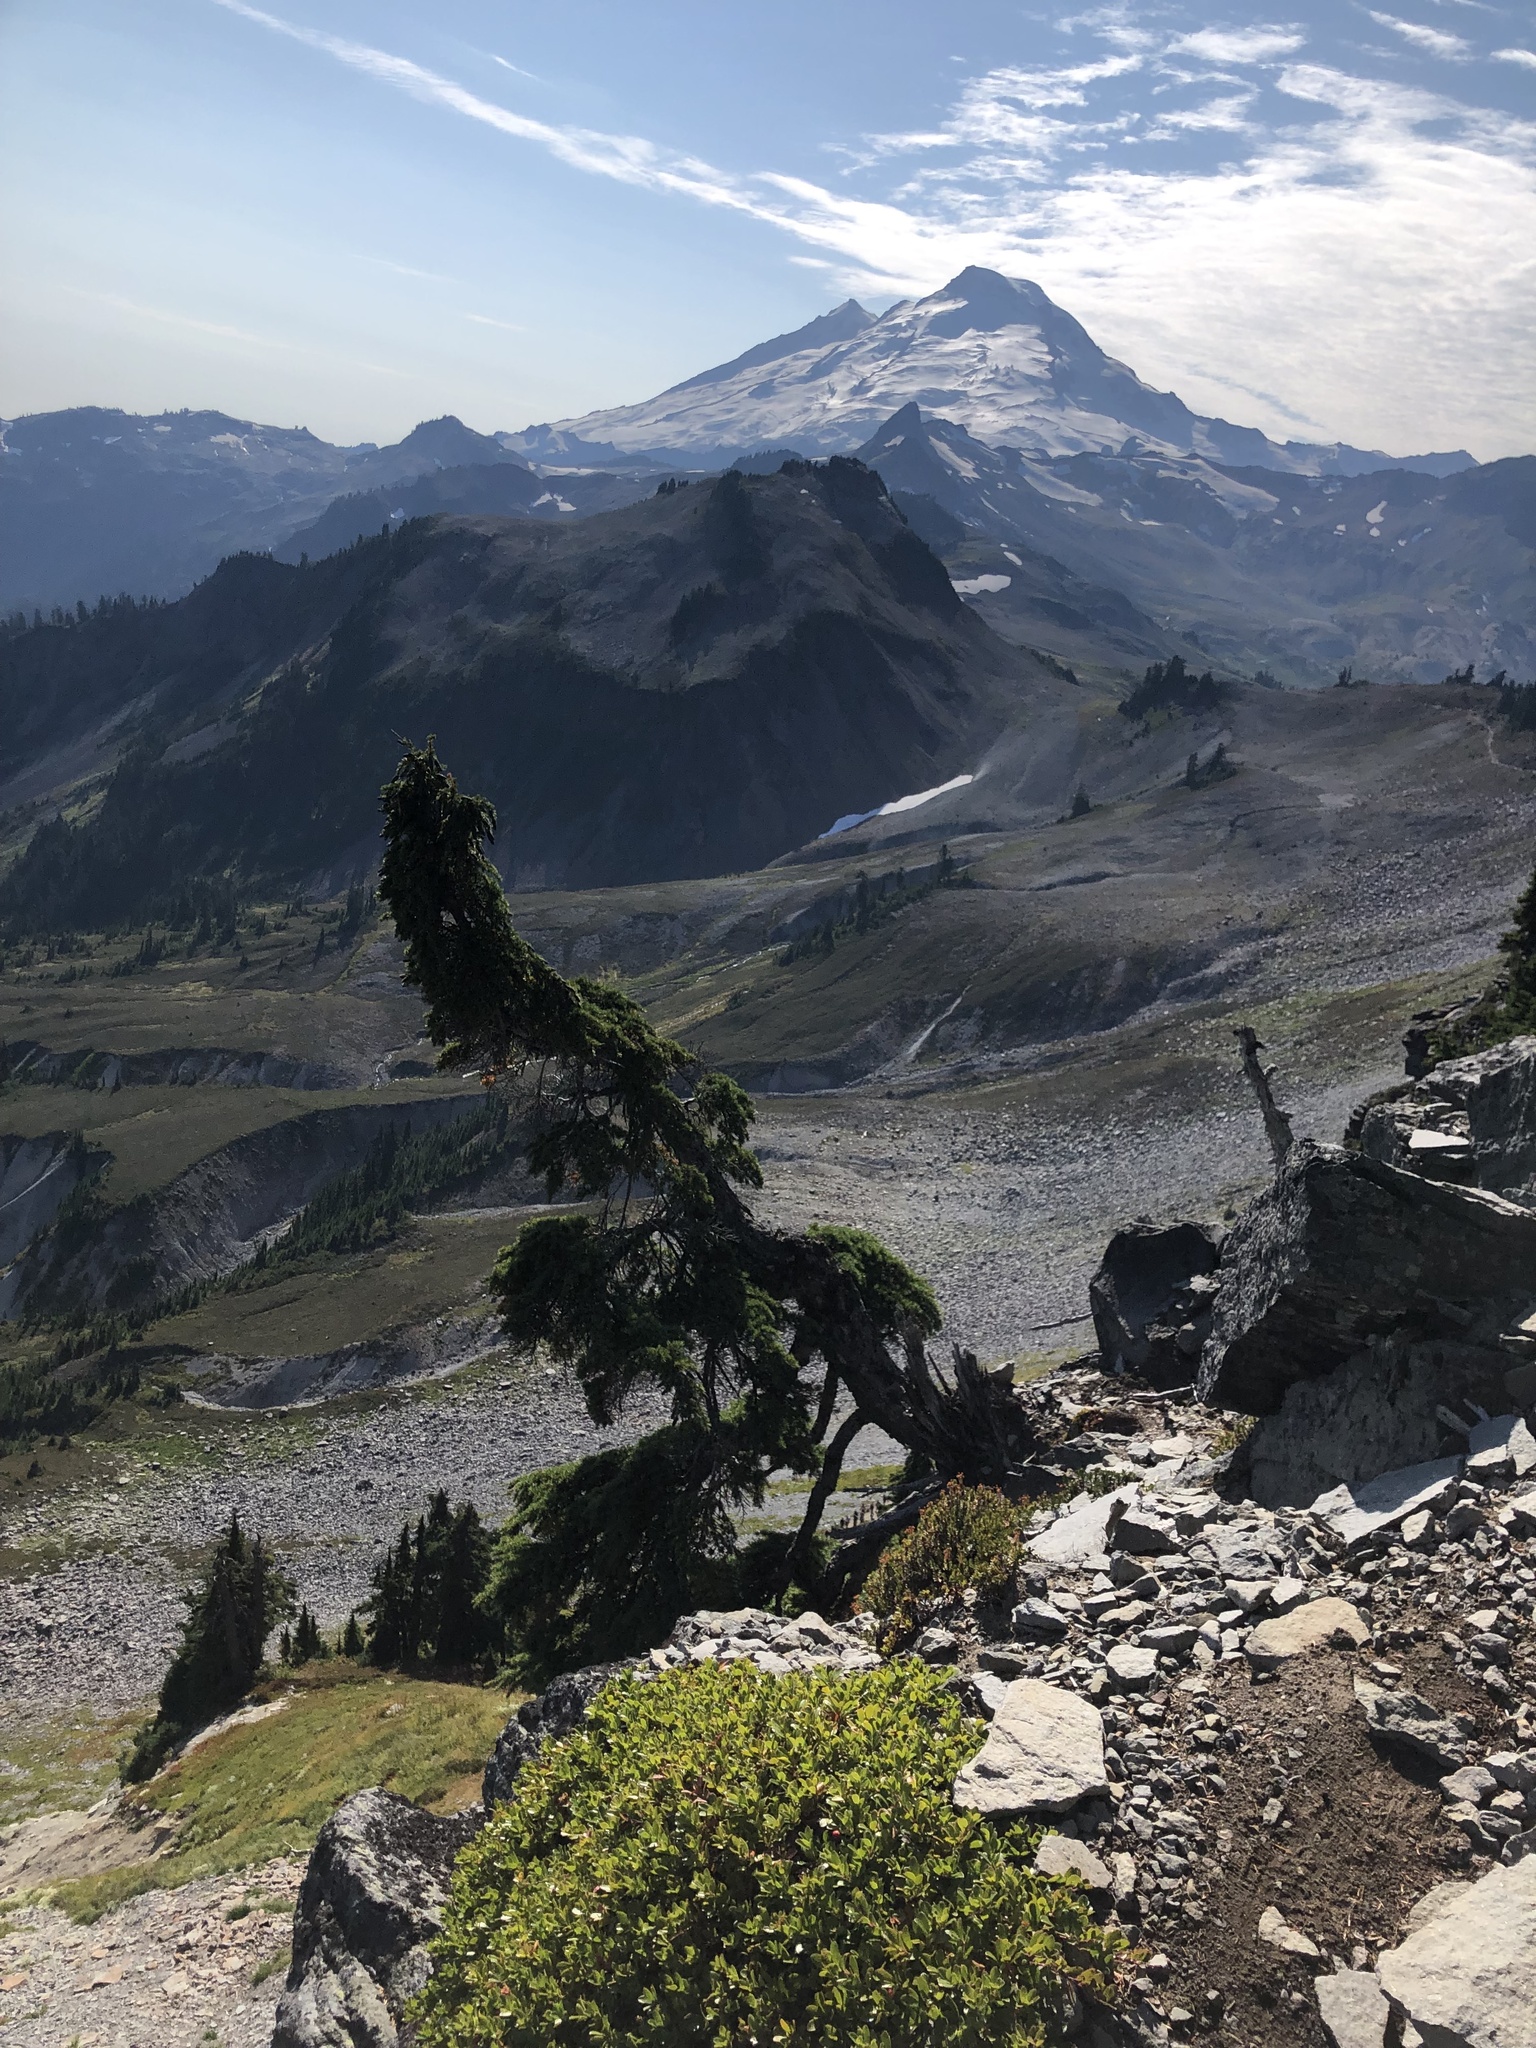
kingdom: Plantae
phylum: Tracheophyta
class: Pinopsida
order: Pinales
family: Pinaceae
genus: Tsuga
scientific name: Tsuga mertensiana
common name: Mountain hemlock
